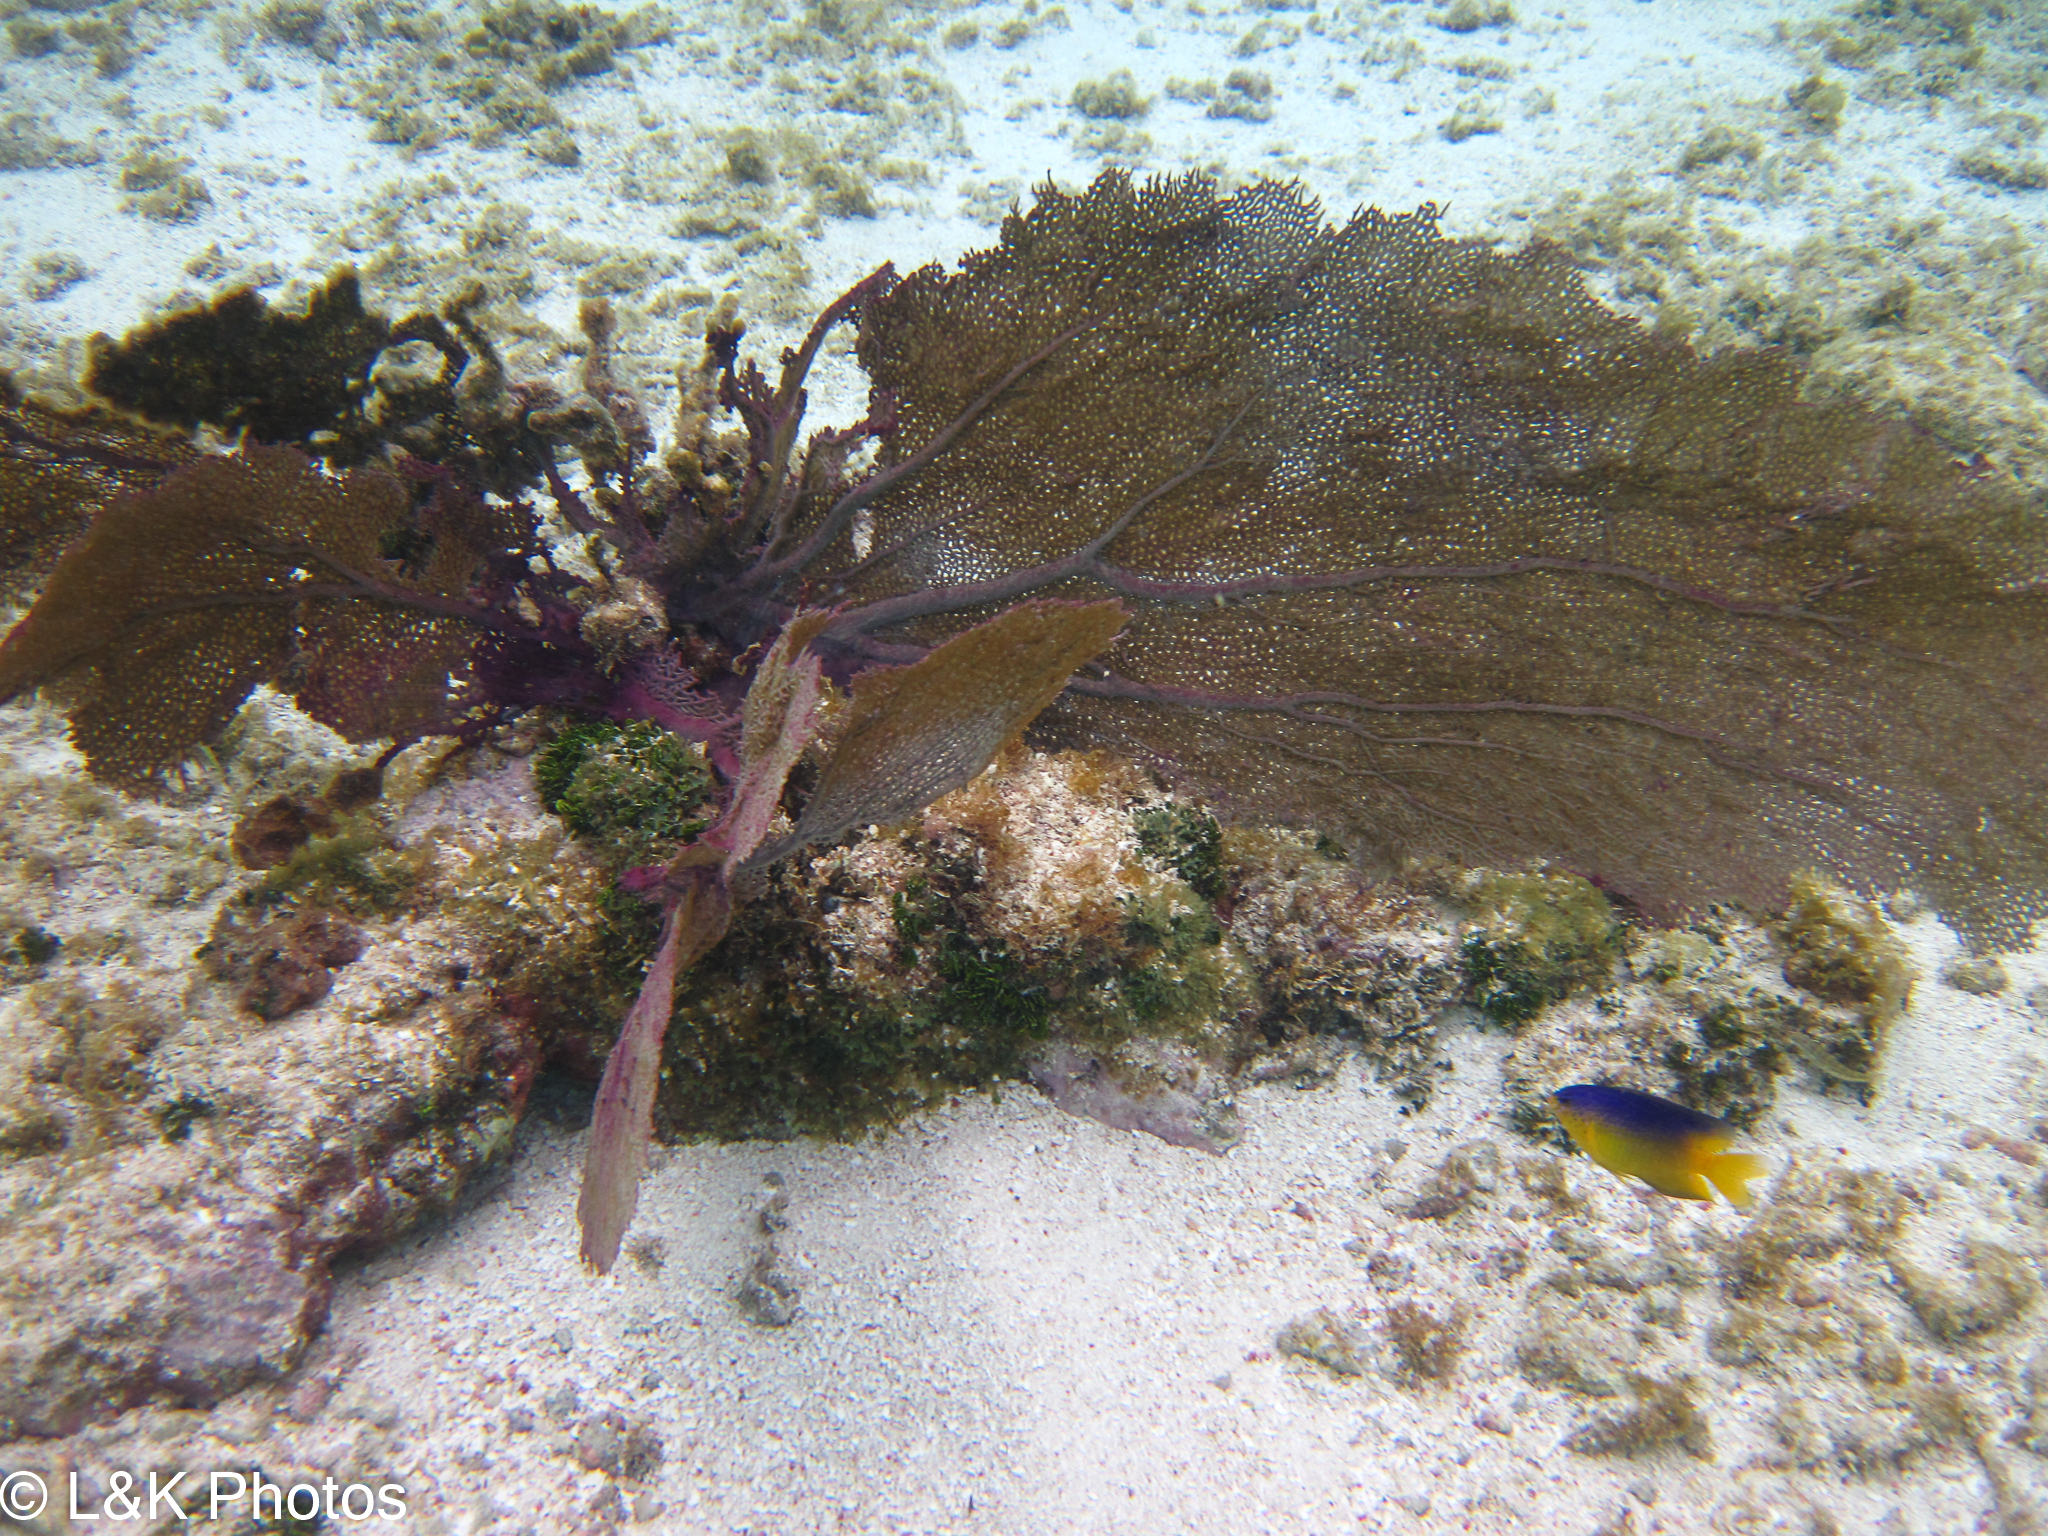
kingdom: Animalia
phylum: Cnidaria
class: Anthozoa
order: Malacalcyonacea
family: Gorgoniidae
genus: Gorgonia
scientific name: Gorgonia ventalina
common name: Common sea fan
